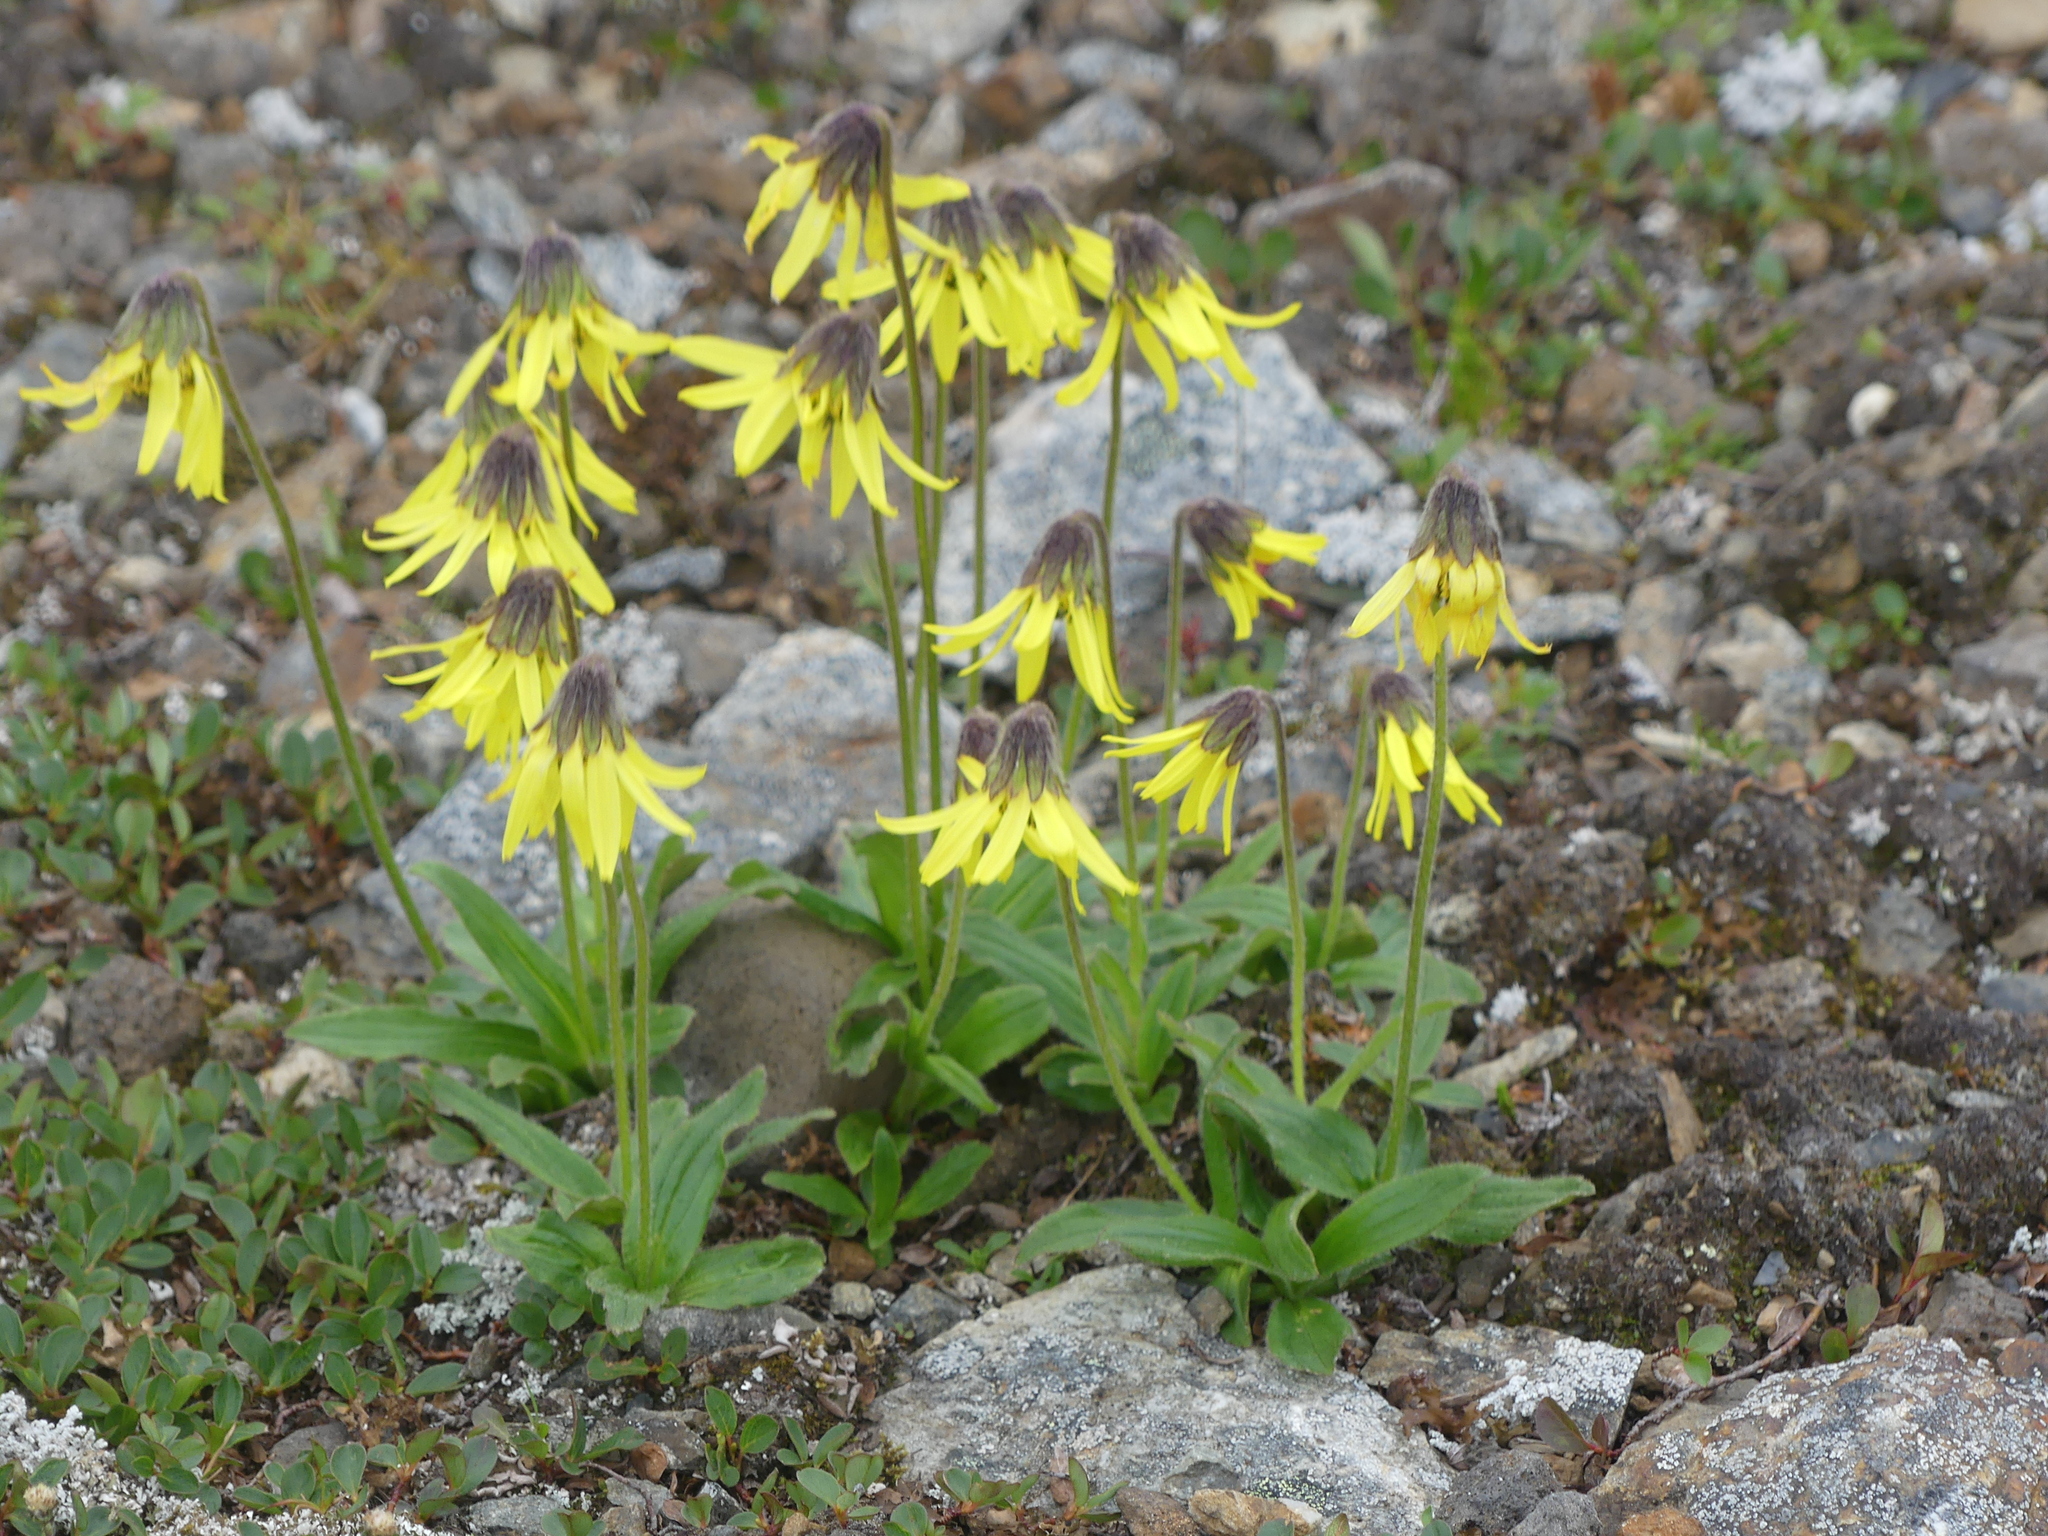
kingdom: Plantae
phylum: Tracheophyta
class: Magnoliopsida
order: Asterales
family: Asteraceae
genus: Arnica
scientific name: Arnica lessingii
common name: Nodding arnica
